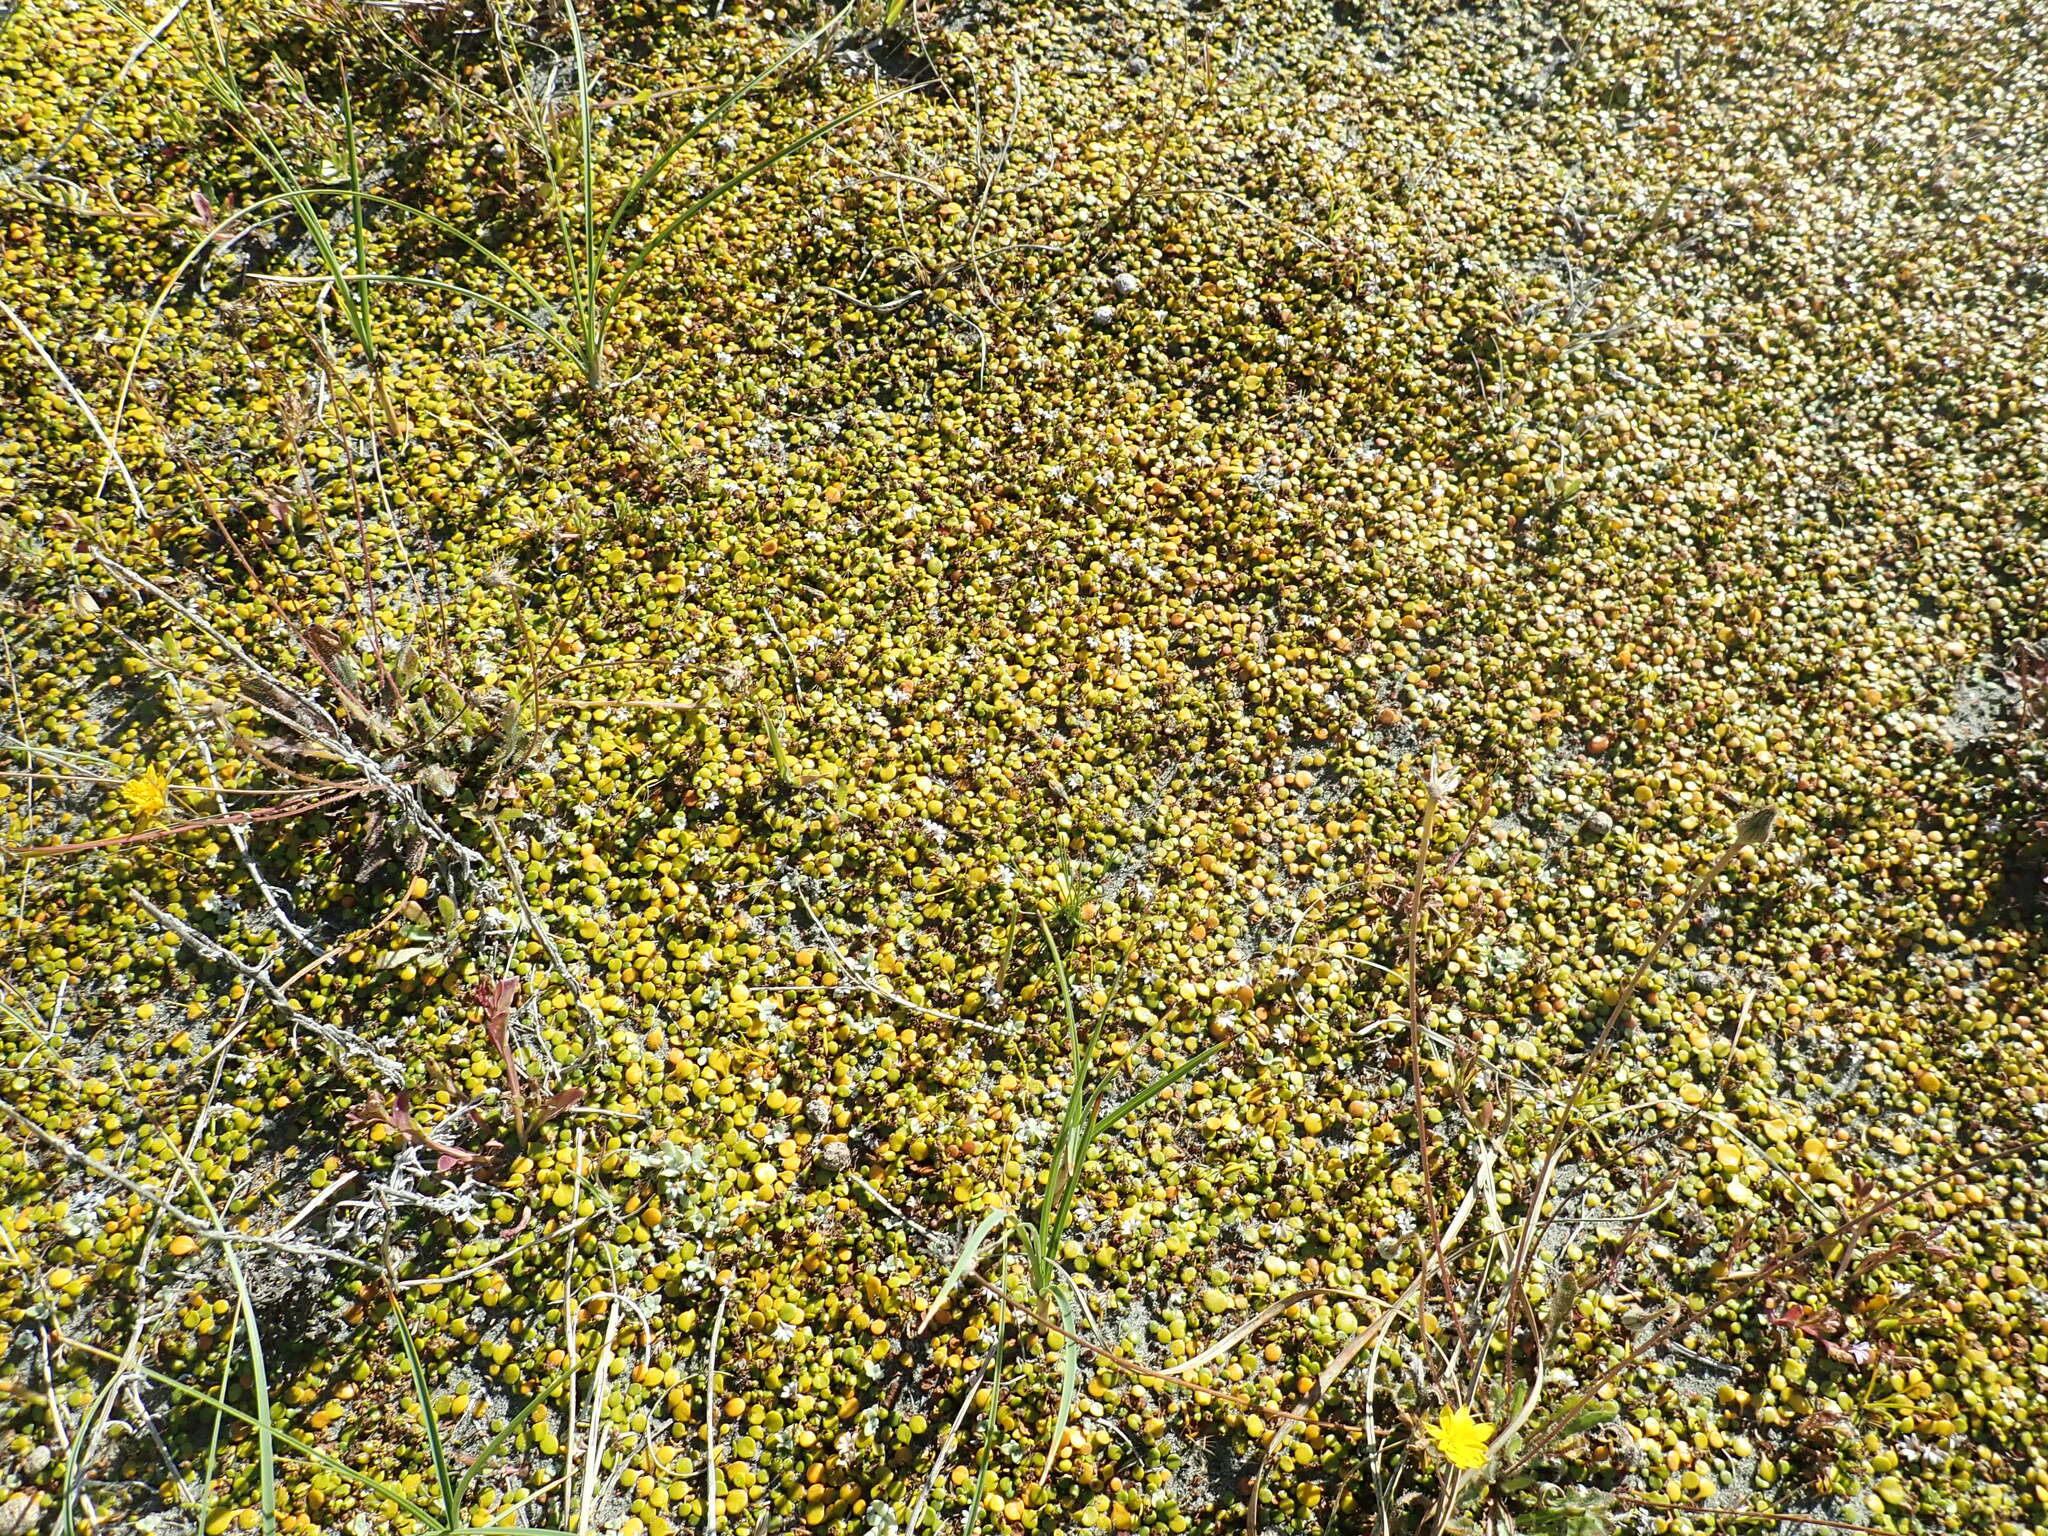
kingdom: Plantae
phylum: Tracheophyta
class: Magnoliopsida
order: Asterales
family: Goodeniaceae
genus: Goodenia
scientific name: Goodenia heenanii
